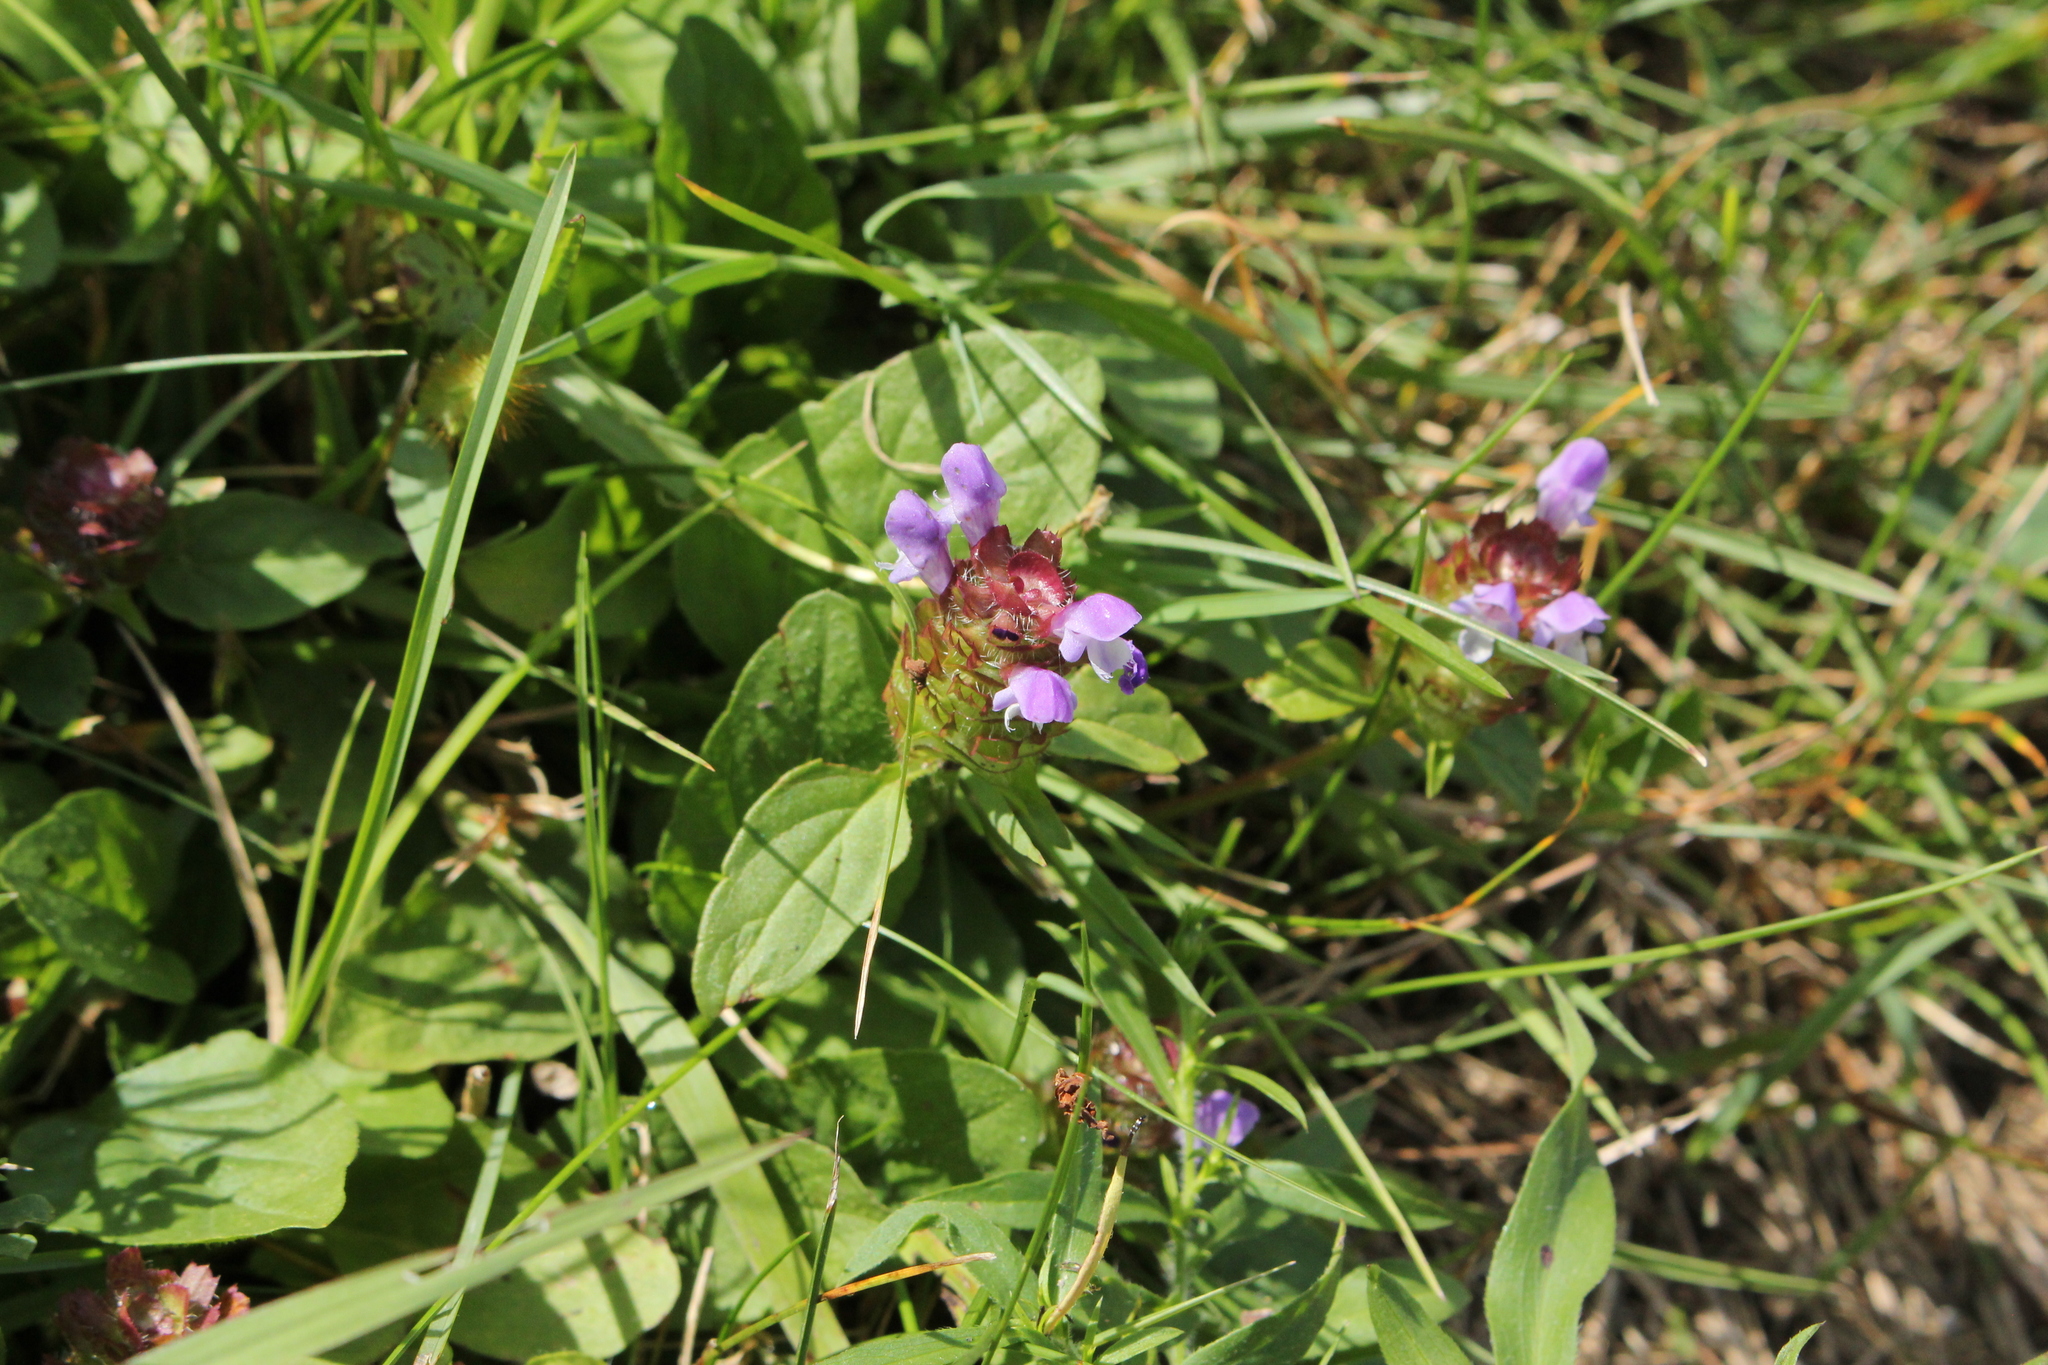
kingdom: Plantae
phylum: Tracheophyta
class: Magnoliopsida
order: Lamiales
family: Lamiaceae
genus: Prunella
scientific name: Prunella vulgaris
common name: Heal-all
